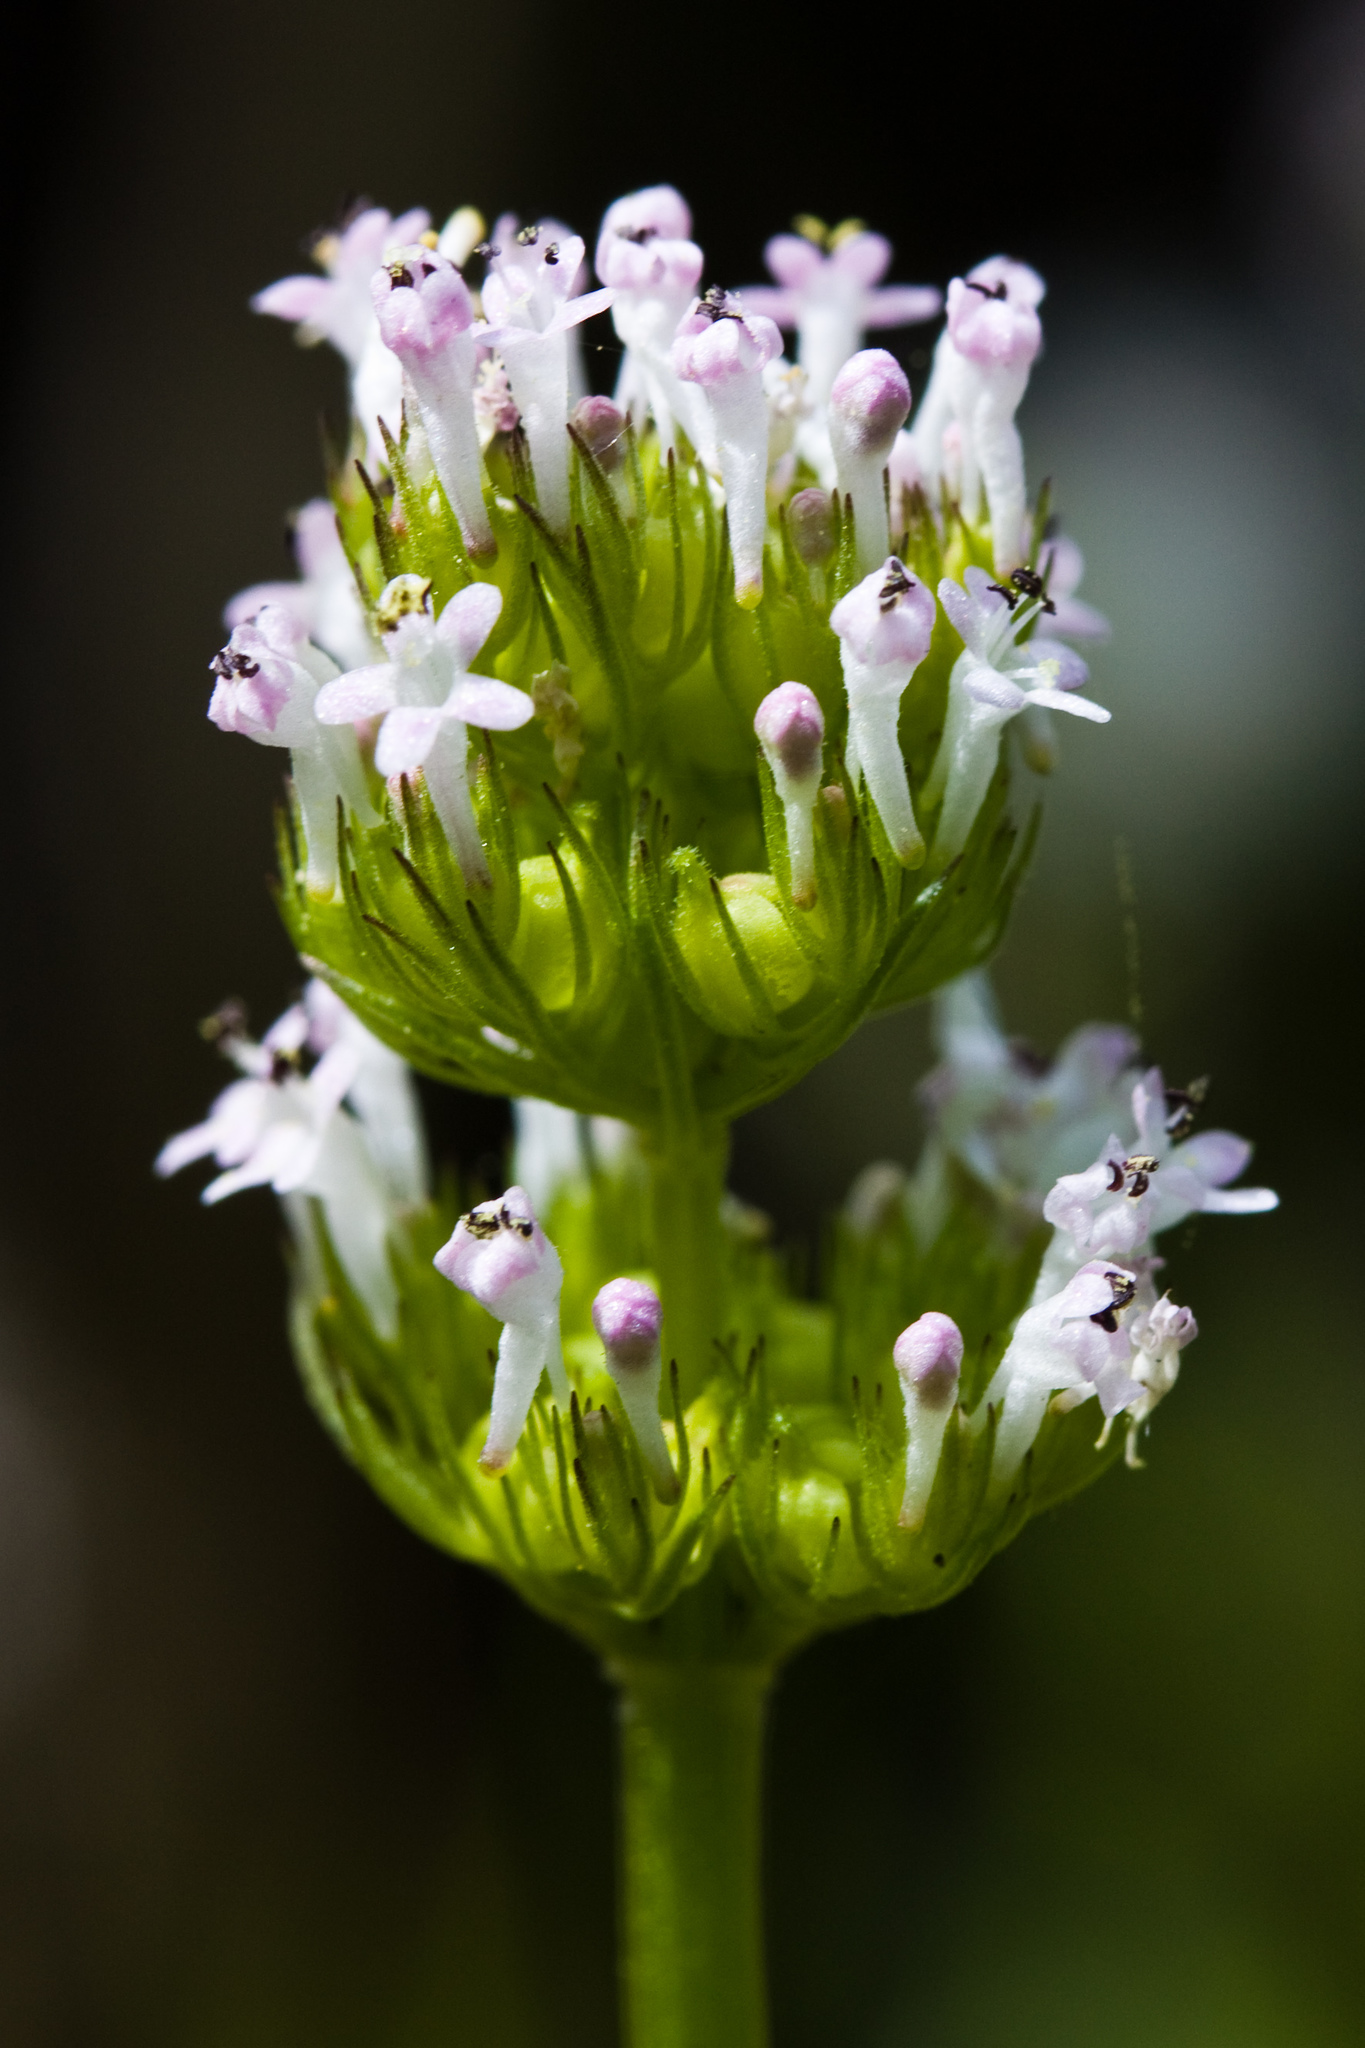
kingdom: Plantae
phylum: Tracheophyta
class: Magnoliopsida
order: Dipsacales
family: Caprifoliaceae
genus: Plectritis
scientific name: Plectritis macroptera
